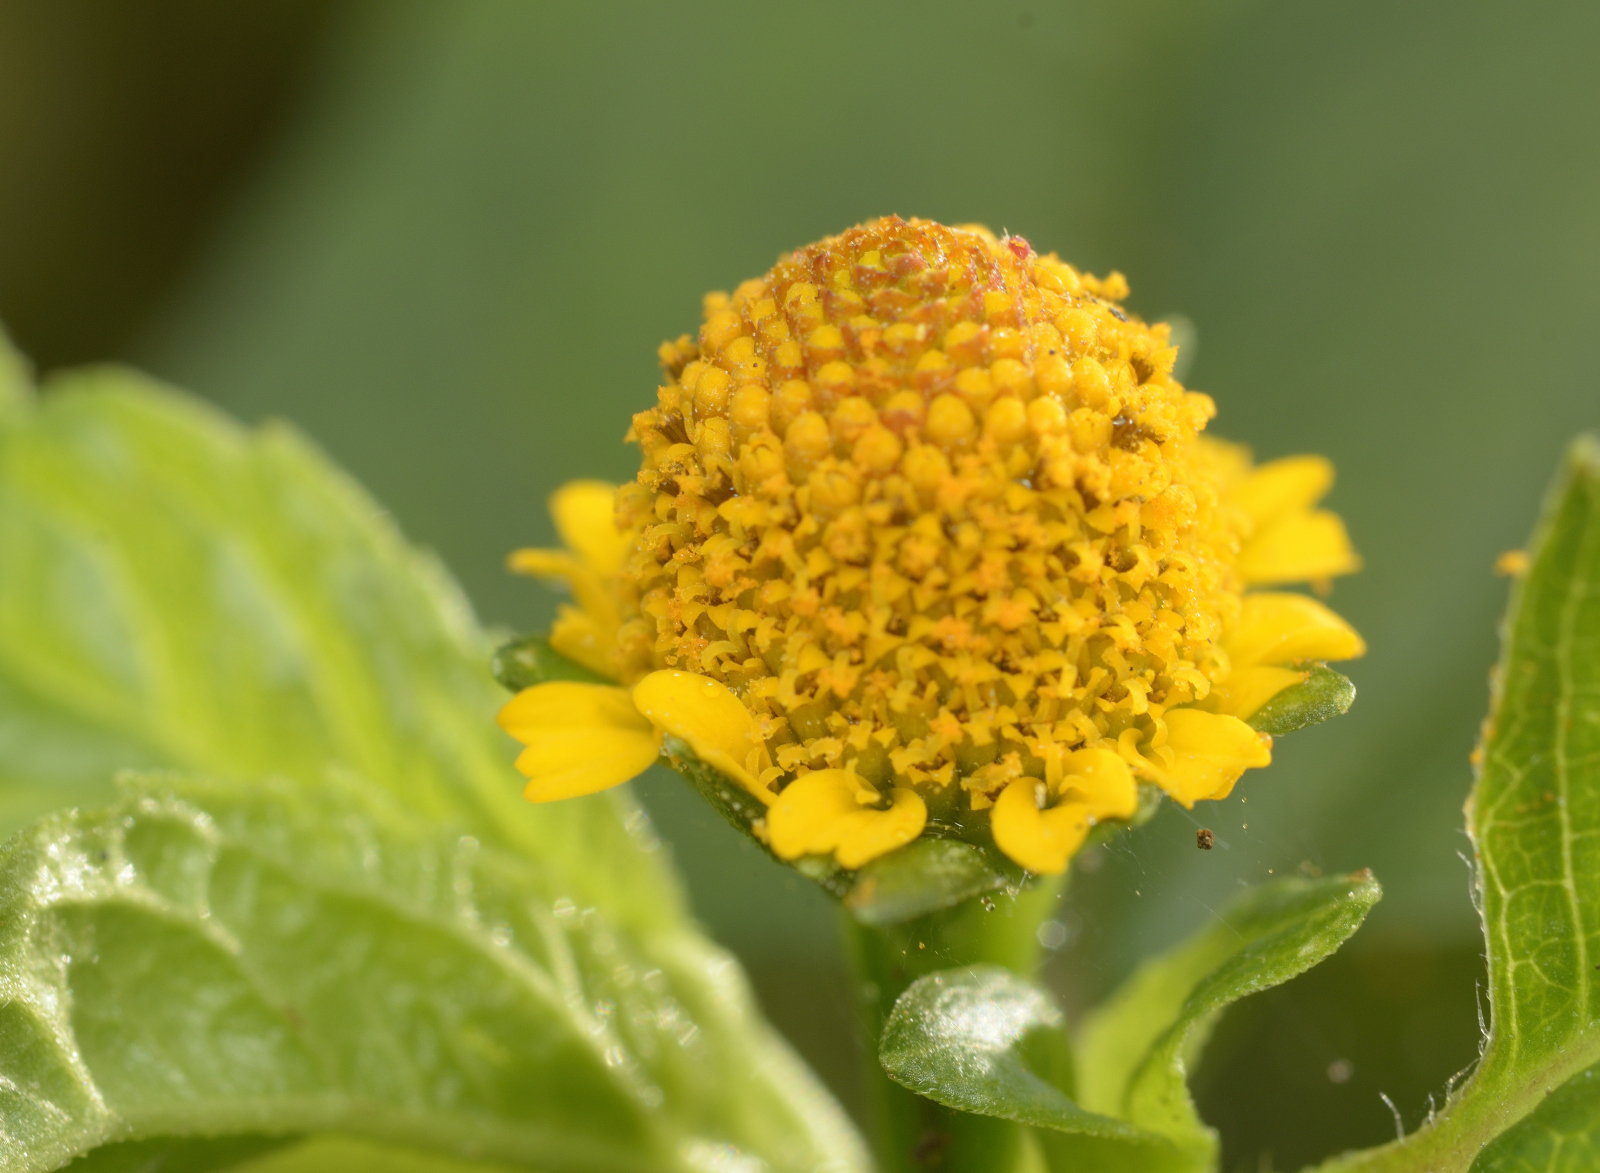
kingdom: Plantae
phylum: Tracheophyta
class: Magnoliopsida
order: Asterales
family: Asteraceae
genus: Acmella
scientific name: Acmella uliginosa
